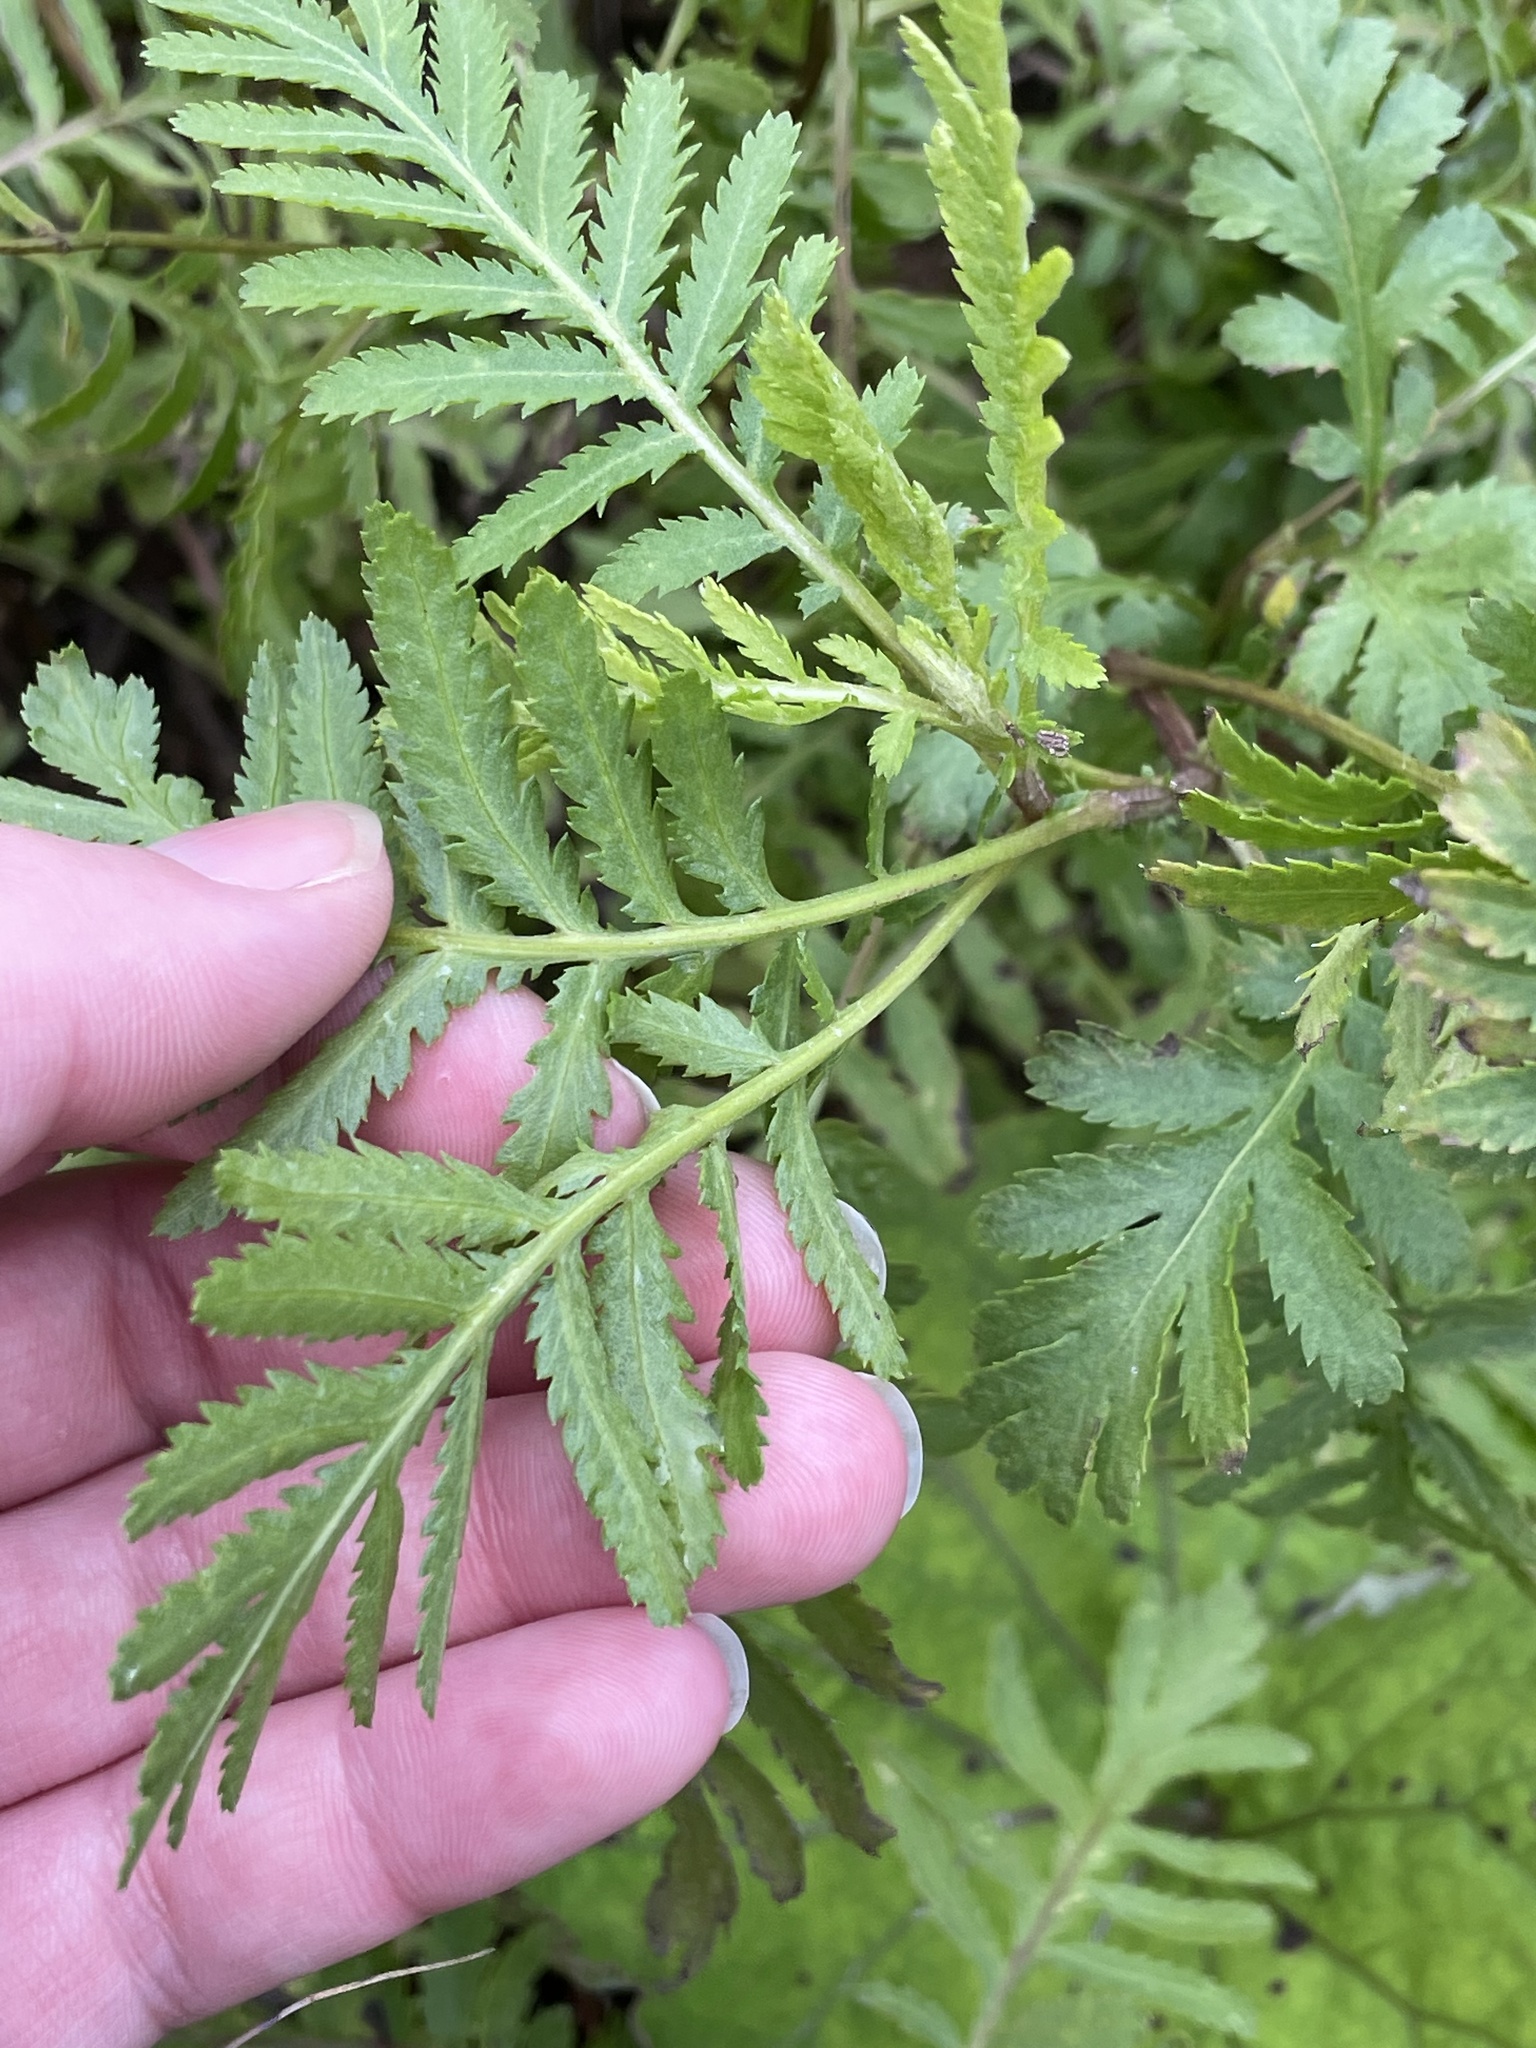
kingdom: Plantae
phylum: Tracheophyta
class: Magnoliopsida
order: Asterales
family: Asteraceae
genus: Tanacetum
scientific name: Tanacetum vulgare
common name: Common tansy
